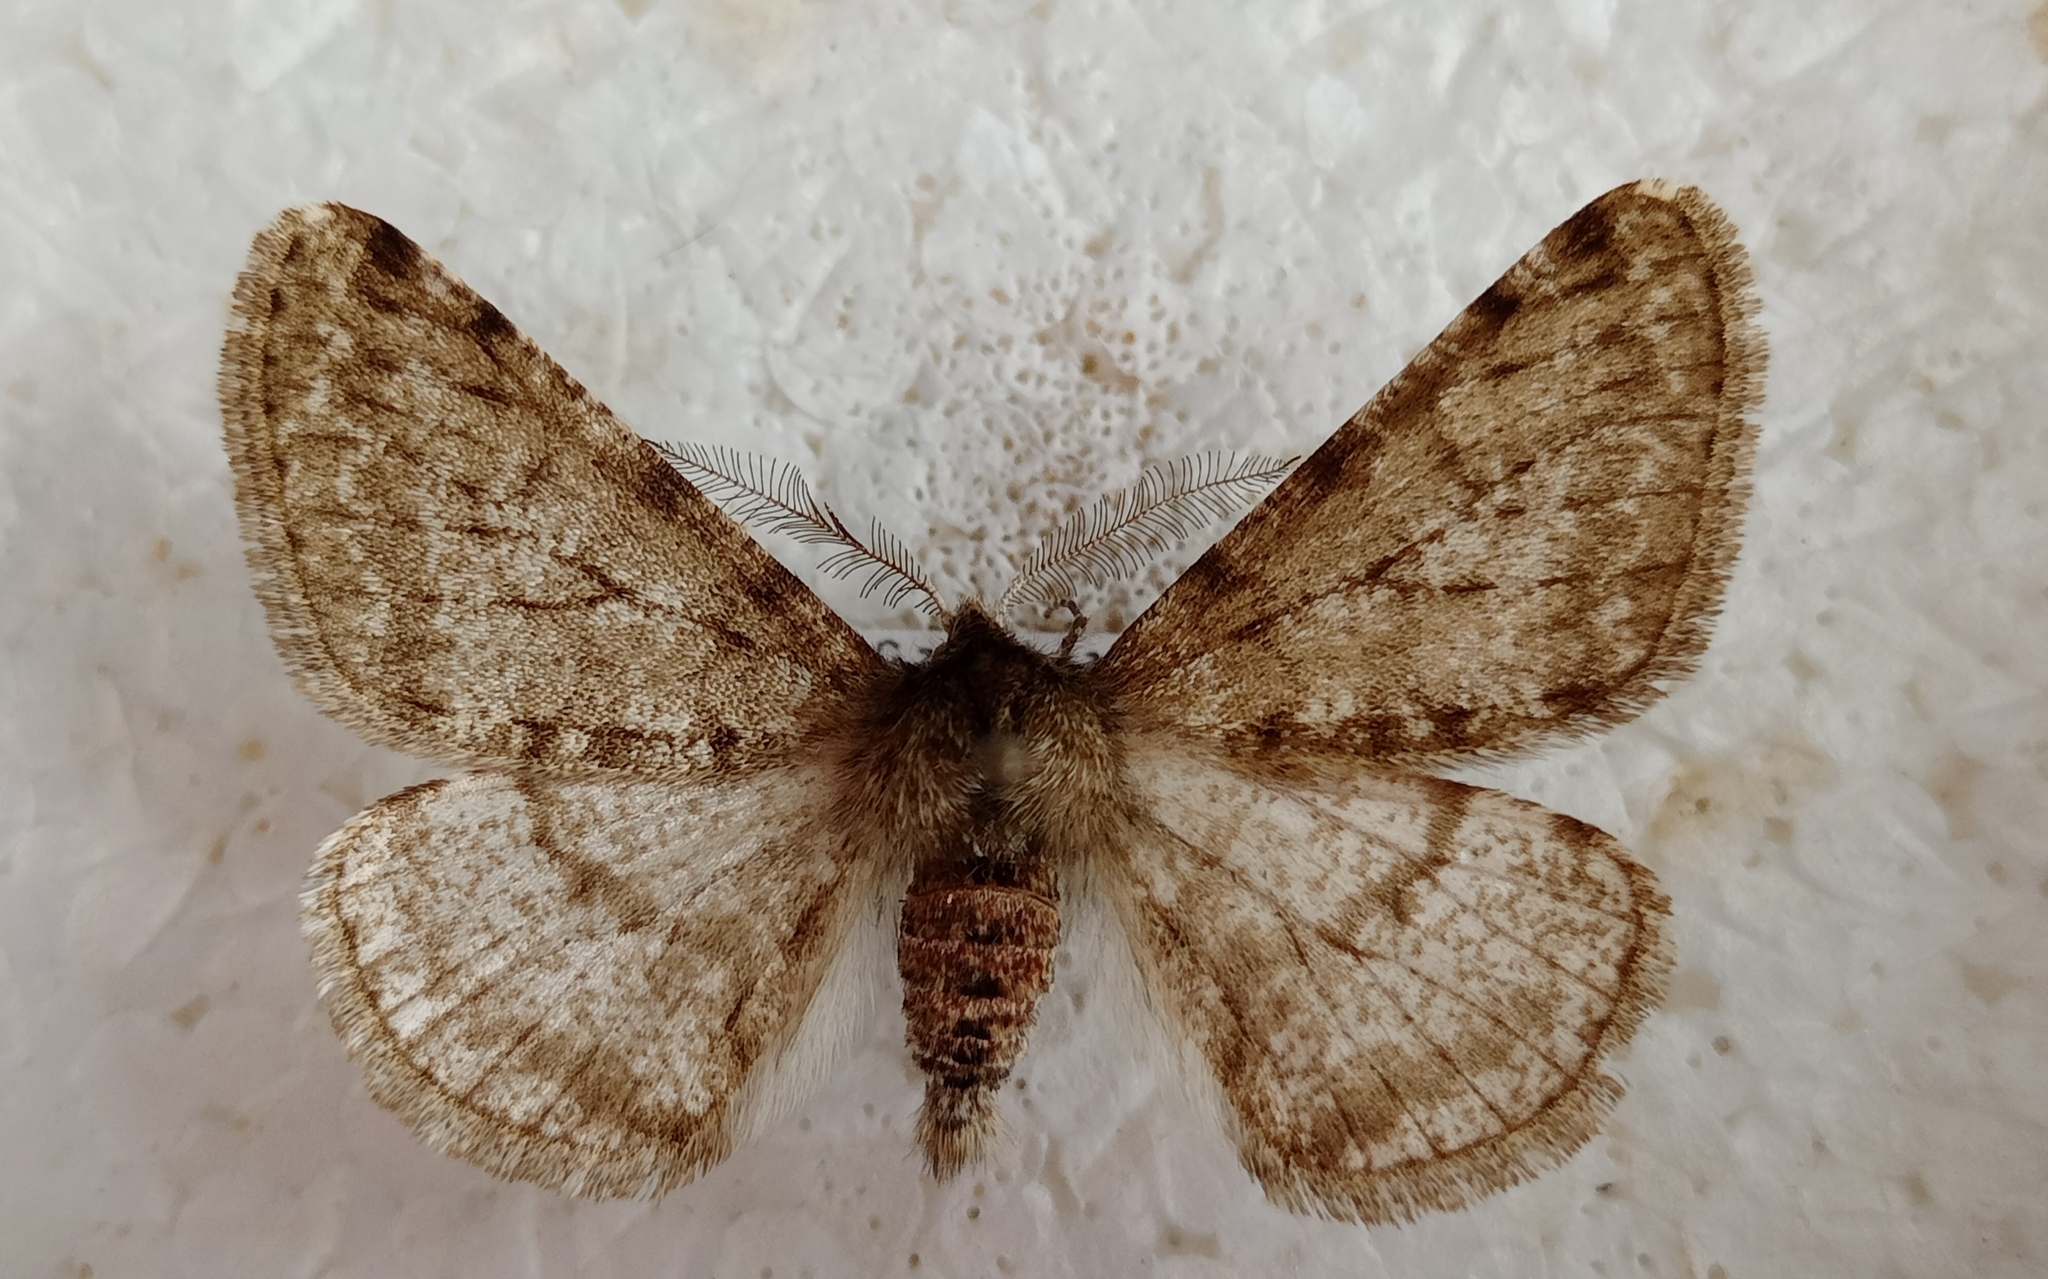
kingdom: Animalia
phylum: Arthropoda
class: Insecta
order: Lepidoptera
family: Geometridae
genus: Phigalia
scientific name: Phigalia pilosaria
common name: Pale brindled beauty
